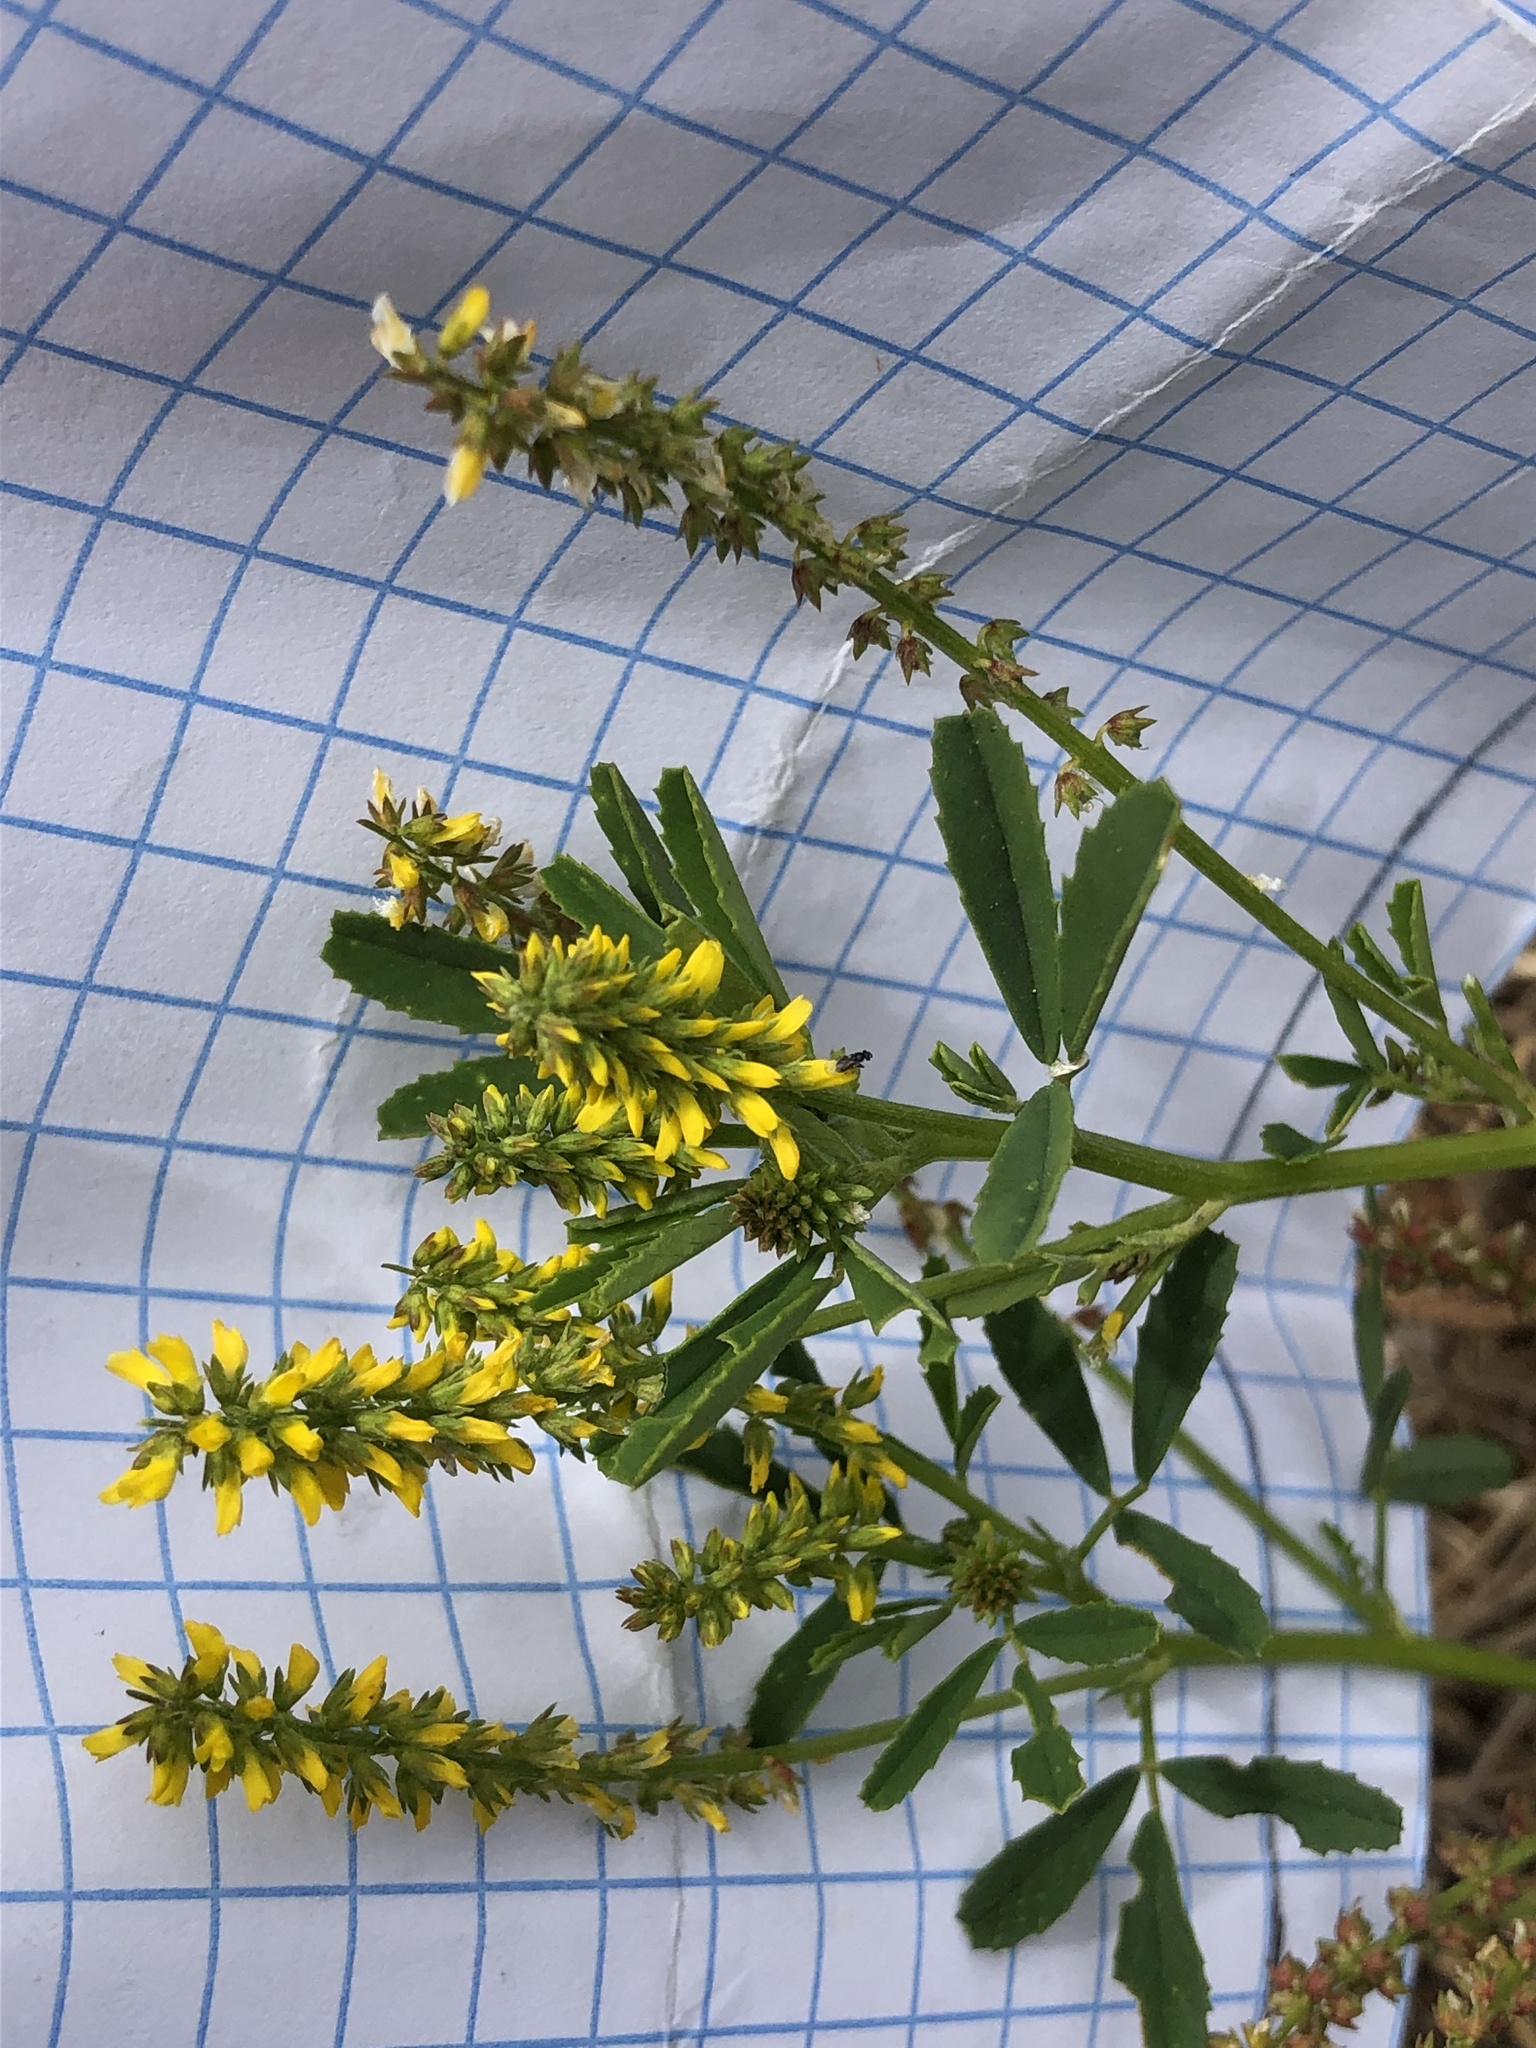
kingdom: Plantae
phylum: Tracheophyta
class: Magnoliopsida
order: Fabales
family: Fabaceae
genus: Melilotus
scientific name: Melilotus indicus
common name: Small melilot
